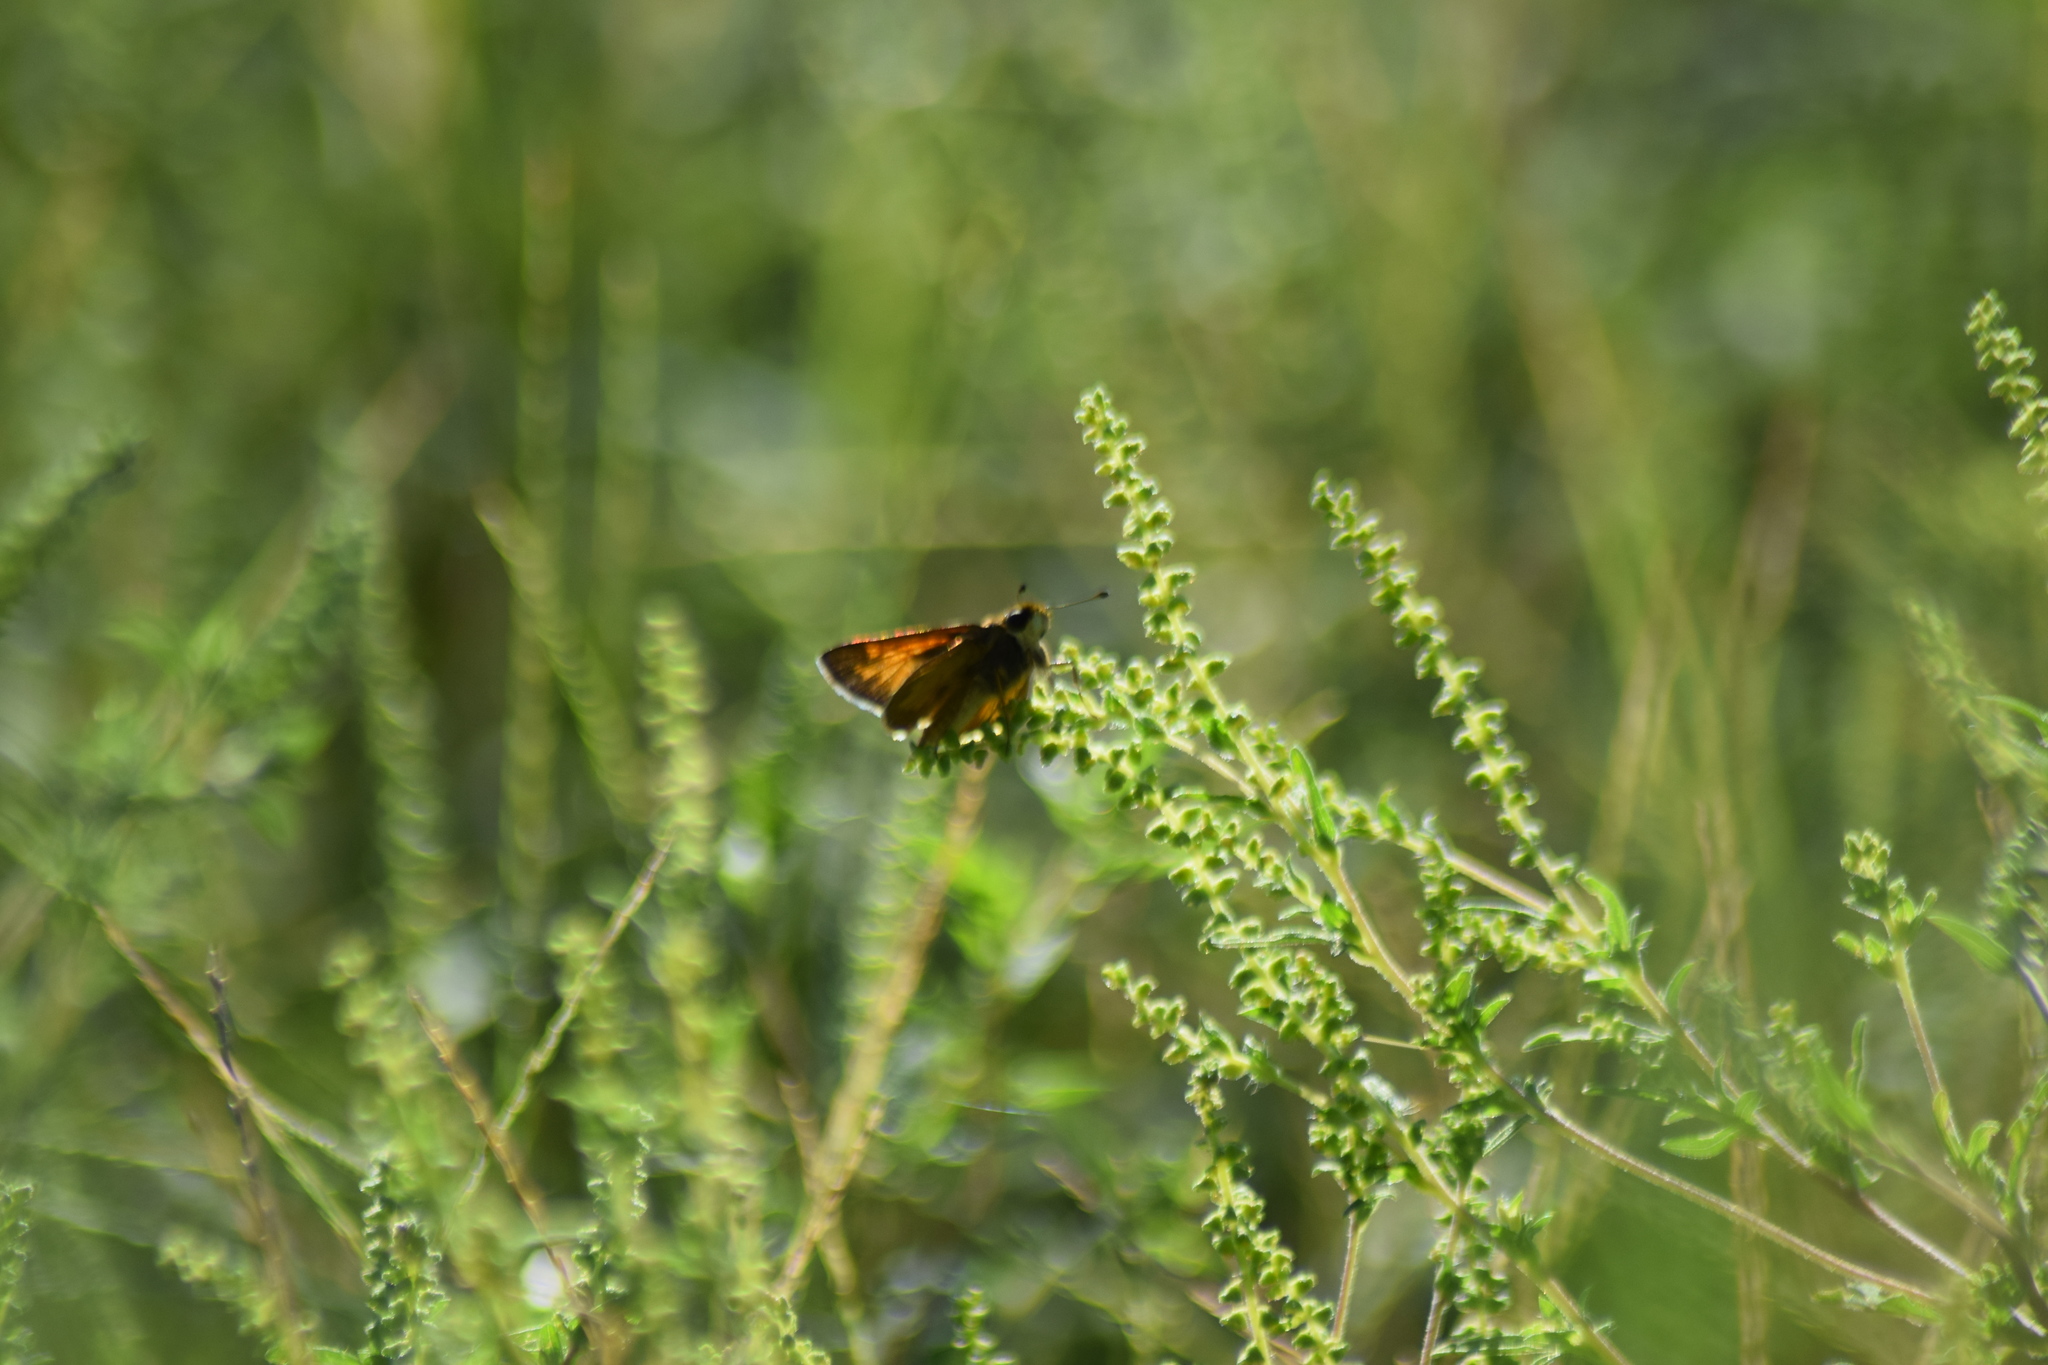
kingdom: Animalia
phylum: Arthropoda
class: Insecta
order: Lepidoptera
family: Hesperiidae
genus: Atalopedes
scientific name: Atalopedes
